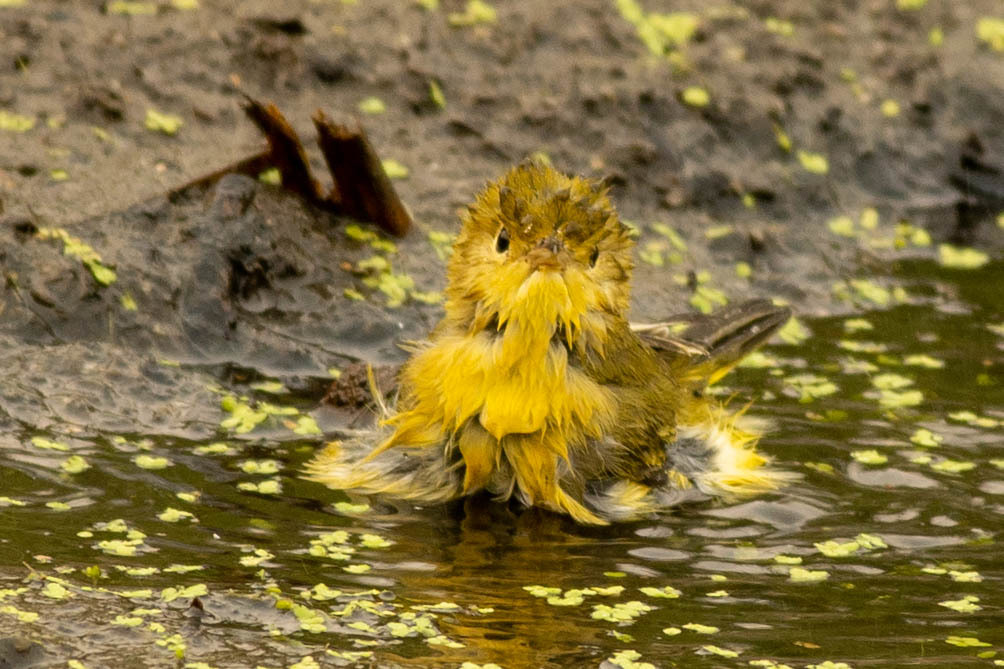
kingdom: Animalia
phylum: Chordata
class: Aves
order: Passeriformes
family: Parulidae
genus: Setophaga
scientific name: Setophaga petechia
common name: Yellow warbler
